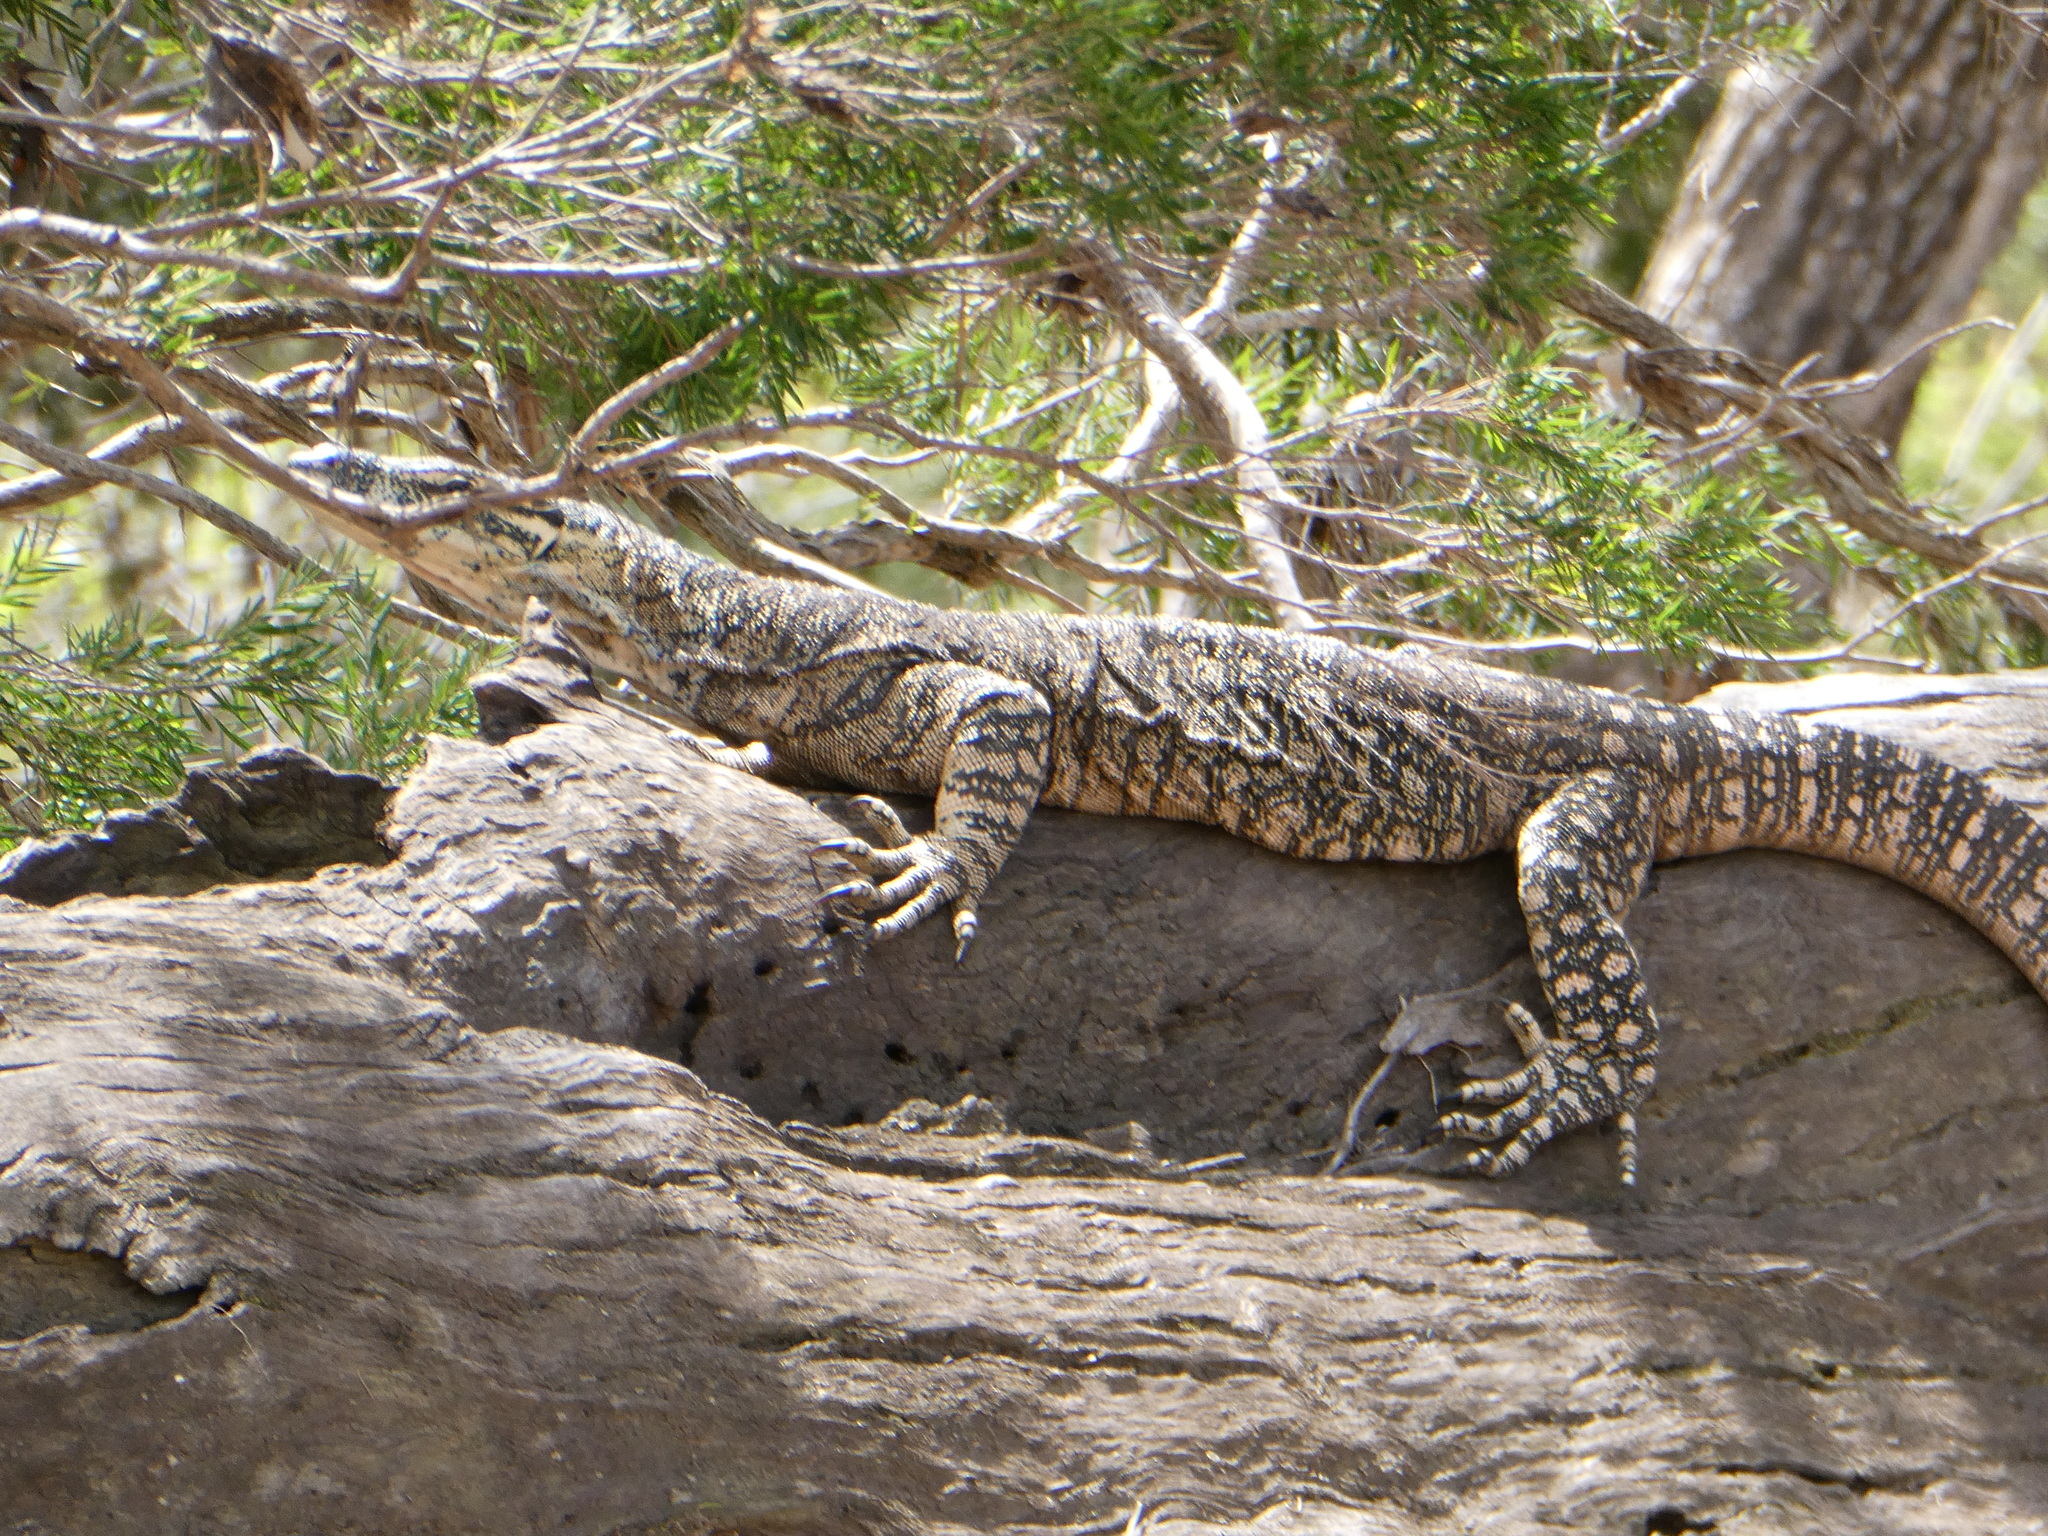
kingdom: Animalia
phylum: Chordata
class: Squamata
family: Varanidae
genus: Varanus
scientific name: Varanus varius
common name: Lace monitor
